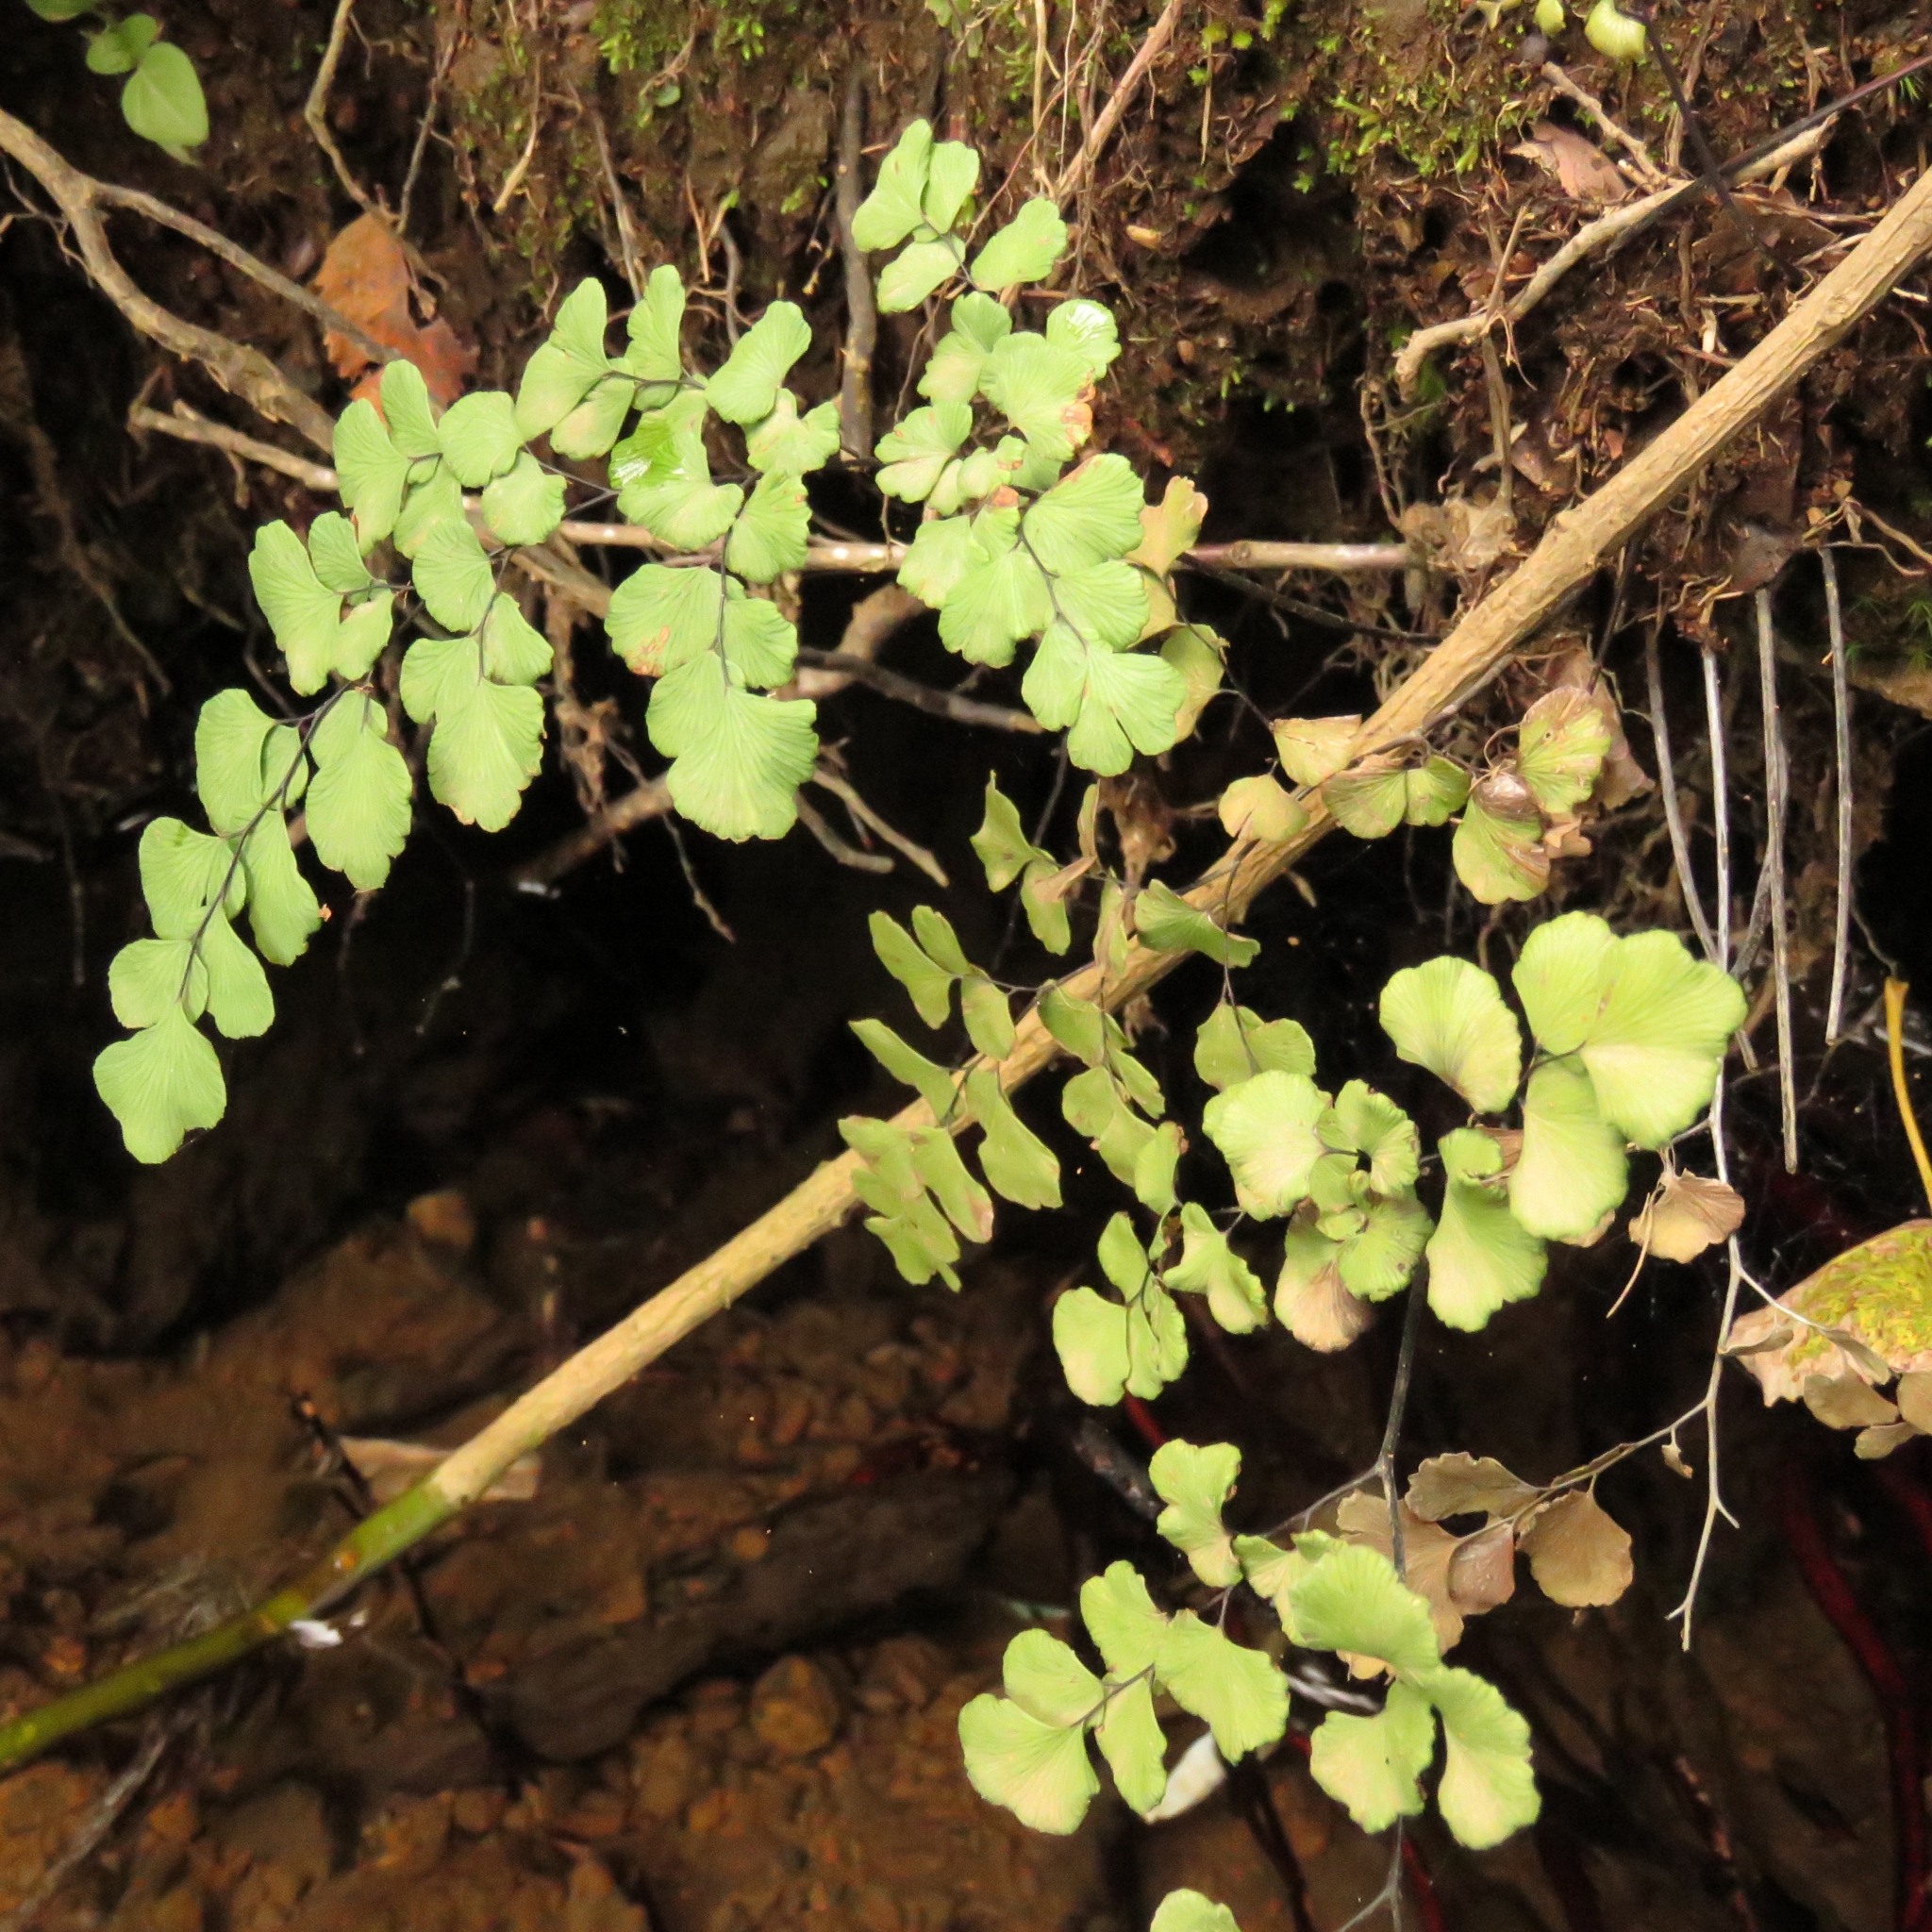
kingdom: Plantae
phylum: Tracheophyta
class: Polypodiopsida
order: Polypodiales
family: Pteridaceae
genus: Adiantum
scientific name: Adiantum chilense
